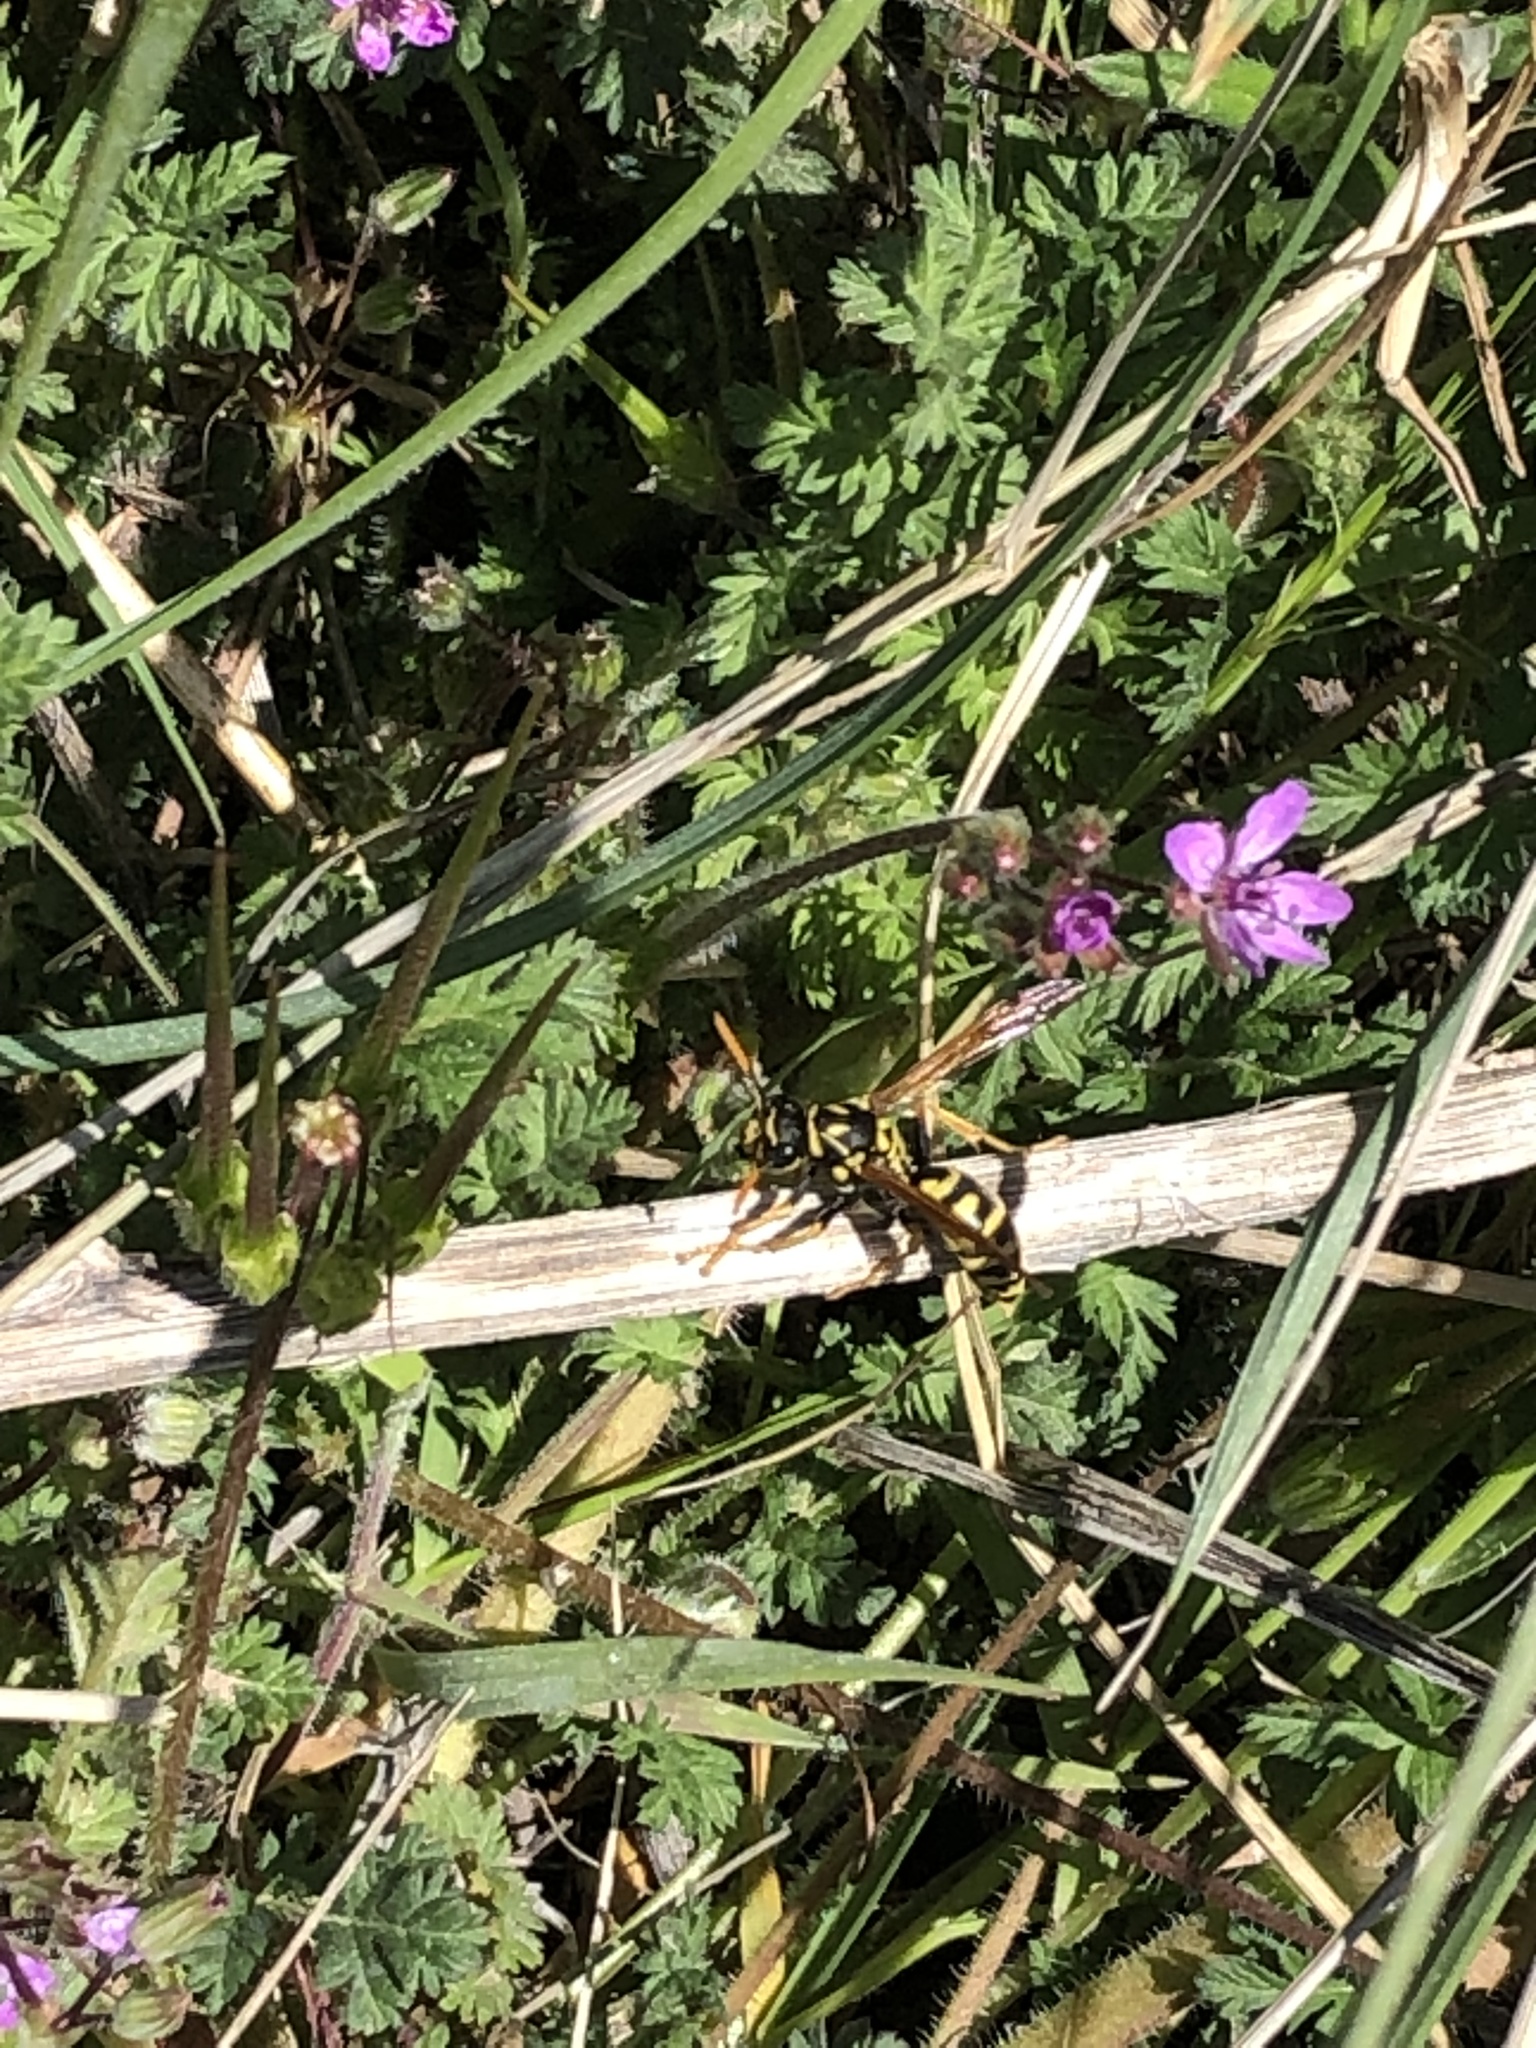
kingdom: Animalia
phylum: Arthropoda
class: Insecta
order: Hymenoptera
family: Eumenidae
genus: Polistes
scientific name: Polistes dominula
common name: Paper wasp
